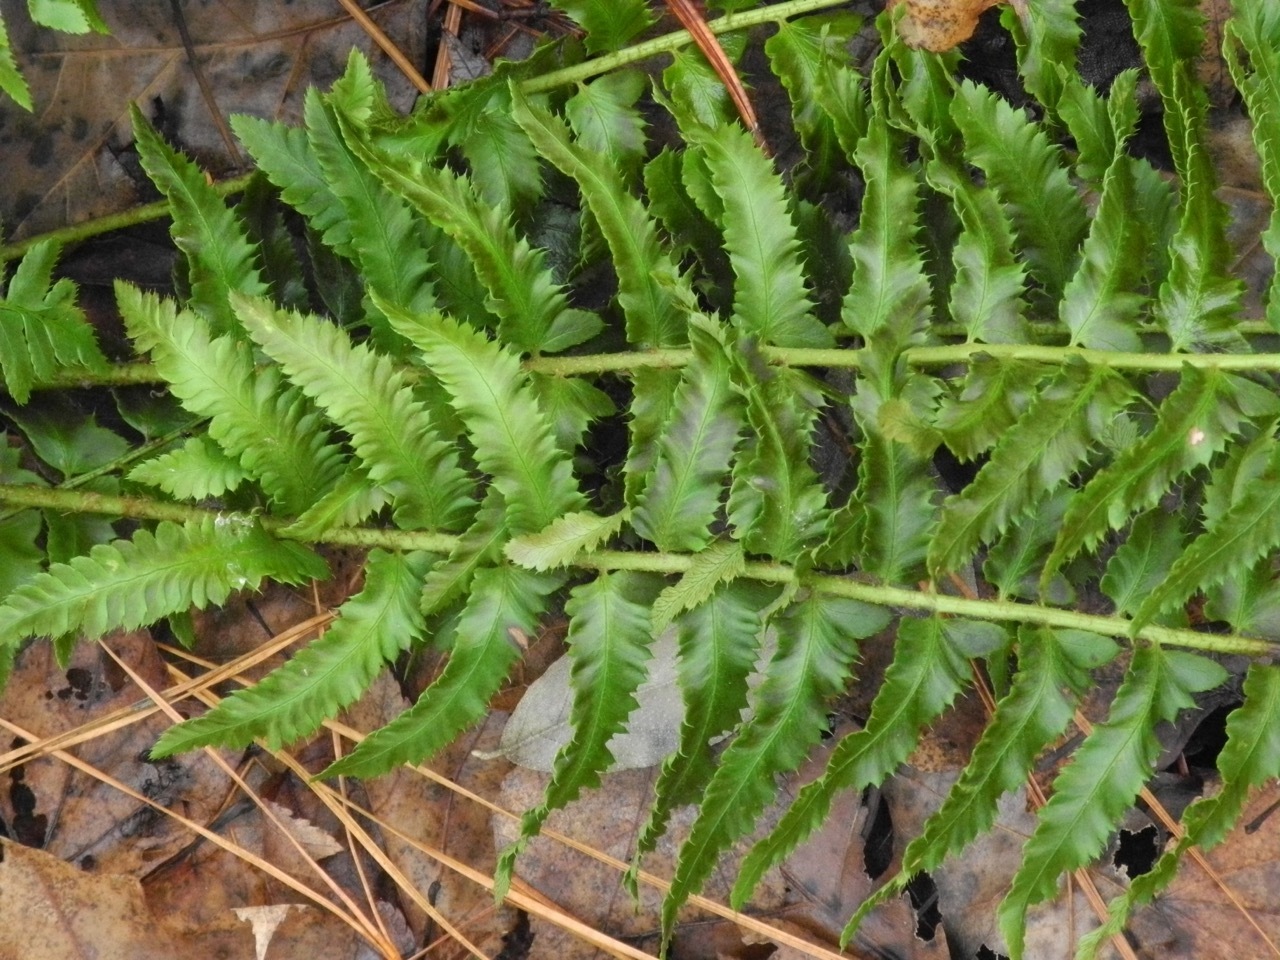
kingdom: Plantae
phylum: Tracheophyta
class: Polypodiopsida
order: Polypodiales
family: Dryopteridaceae
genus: Polystichum
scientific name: Polystichum acrostichoides
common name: Christmas fern
